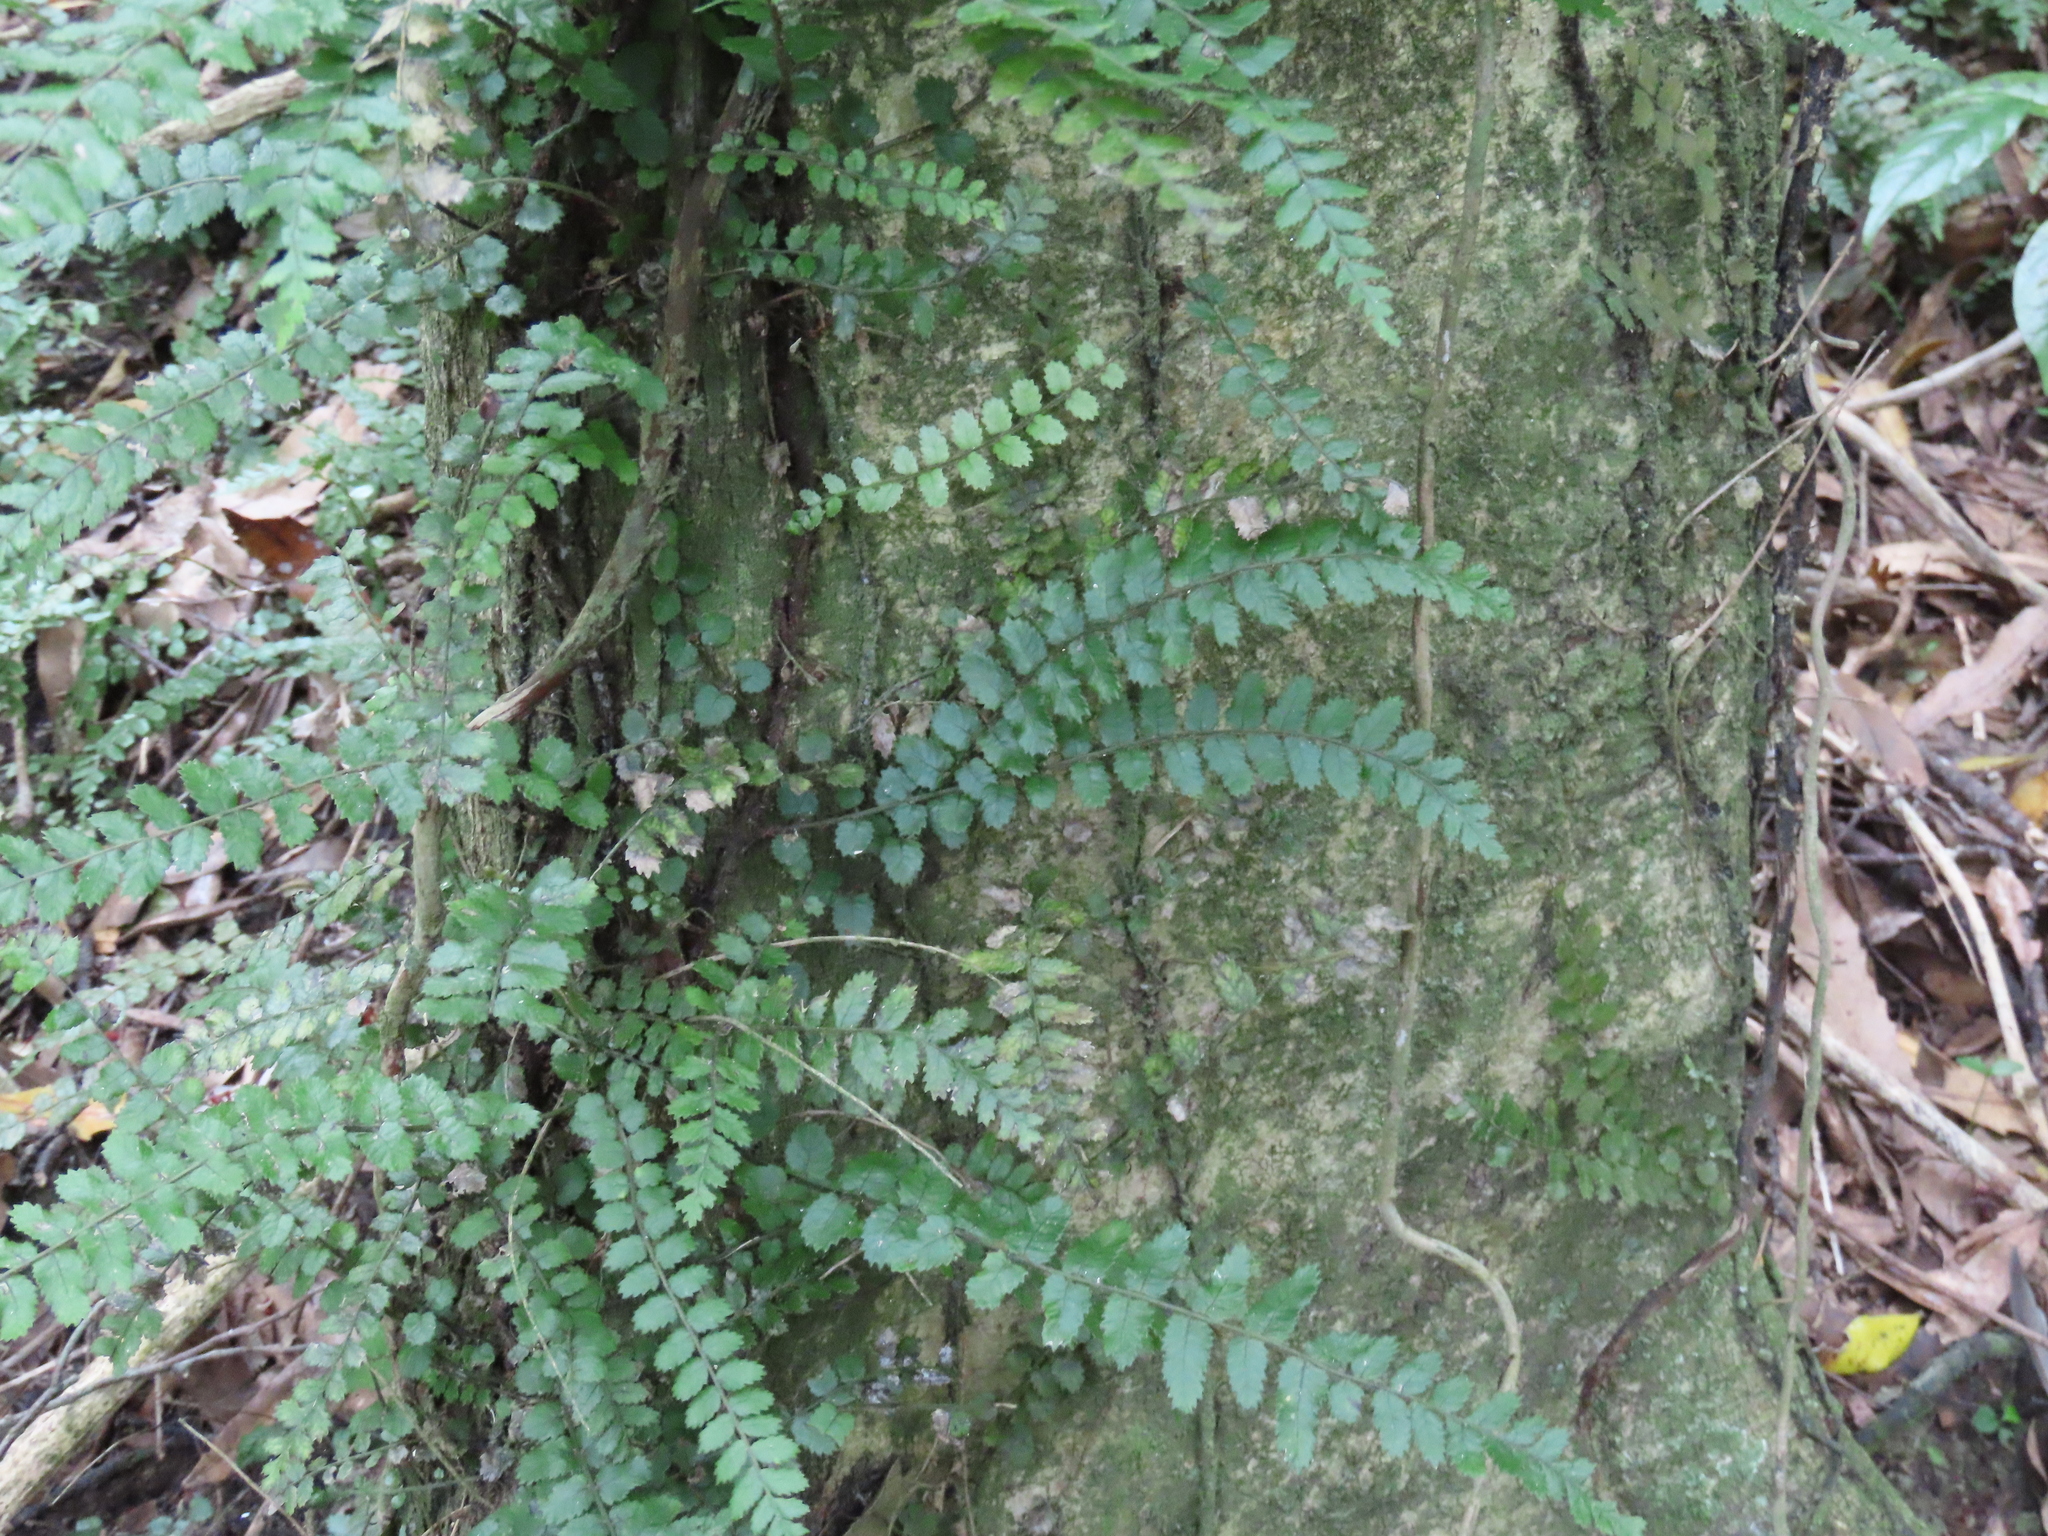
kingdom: Plantae
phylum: Tracheophyta
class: Polypodiopsida
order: Polypodiales
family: Blechnaceae
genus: Icarus
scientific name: Icarus filiformis
